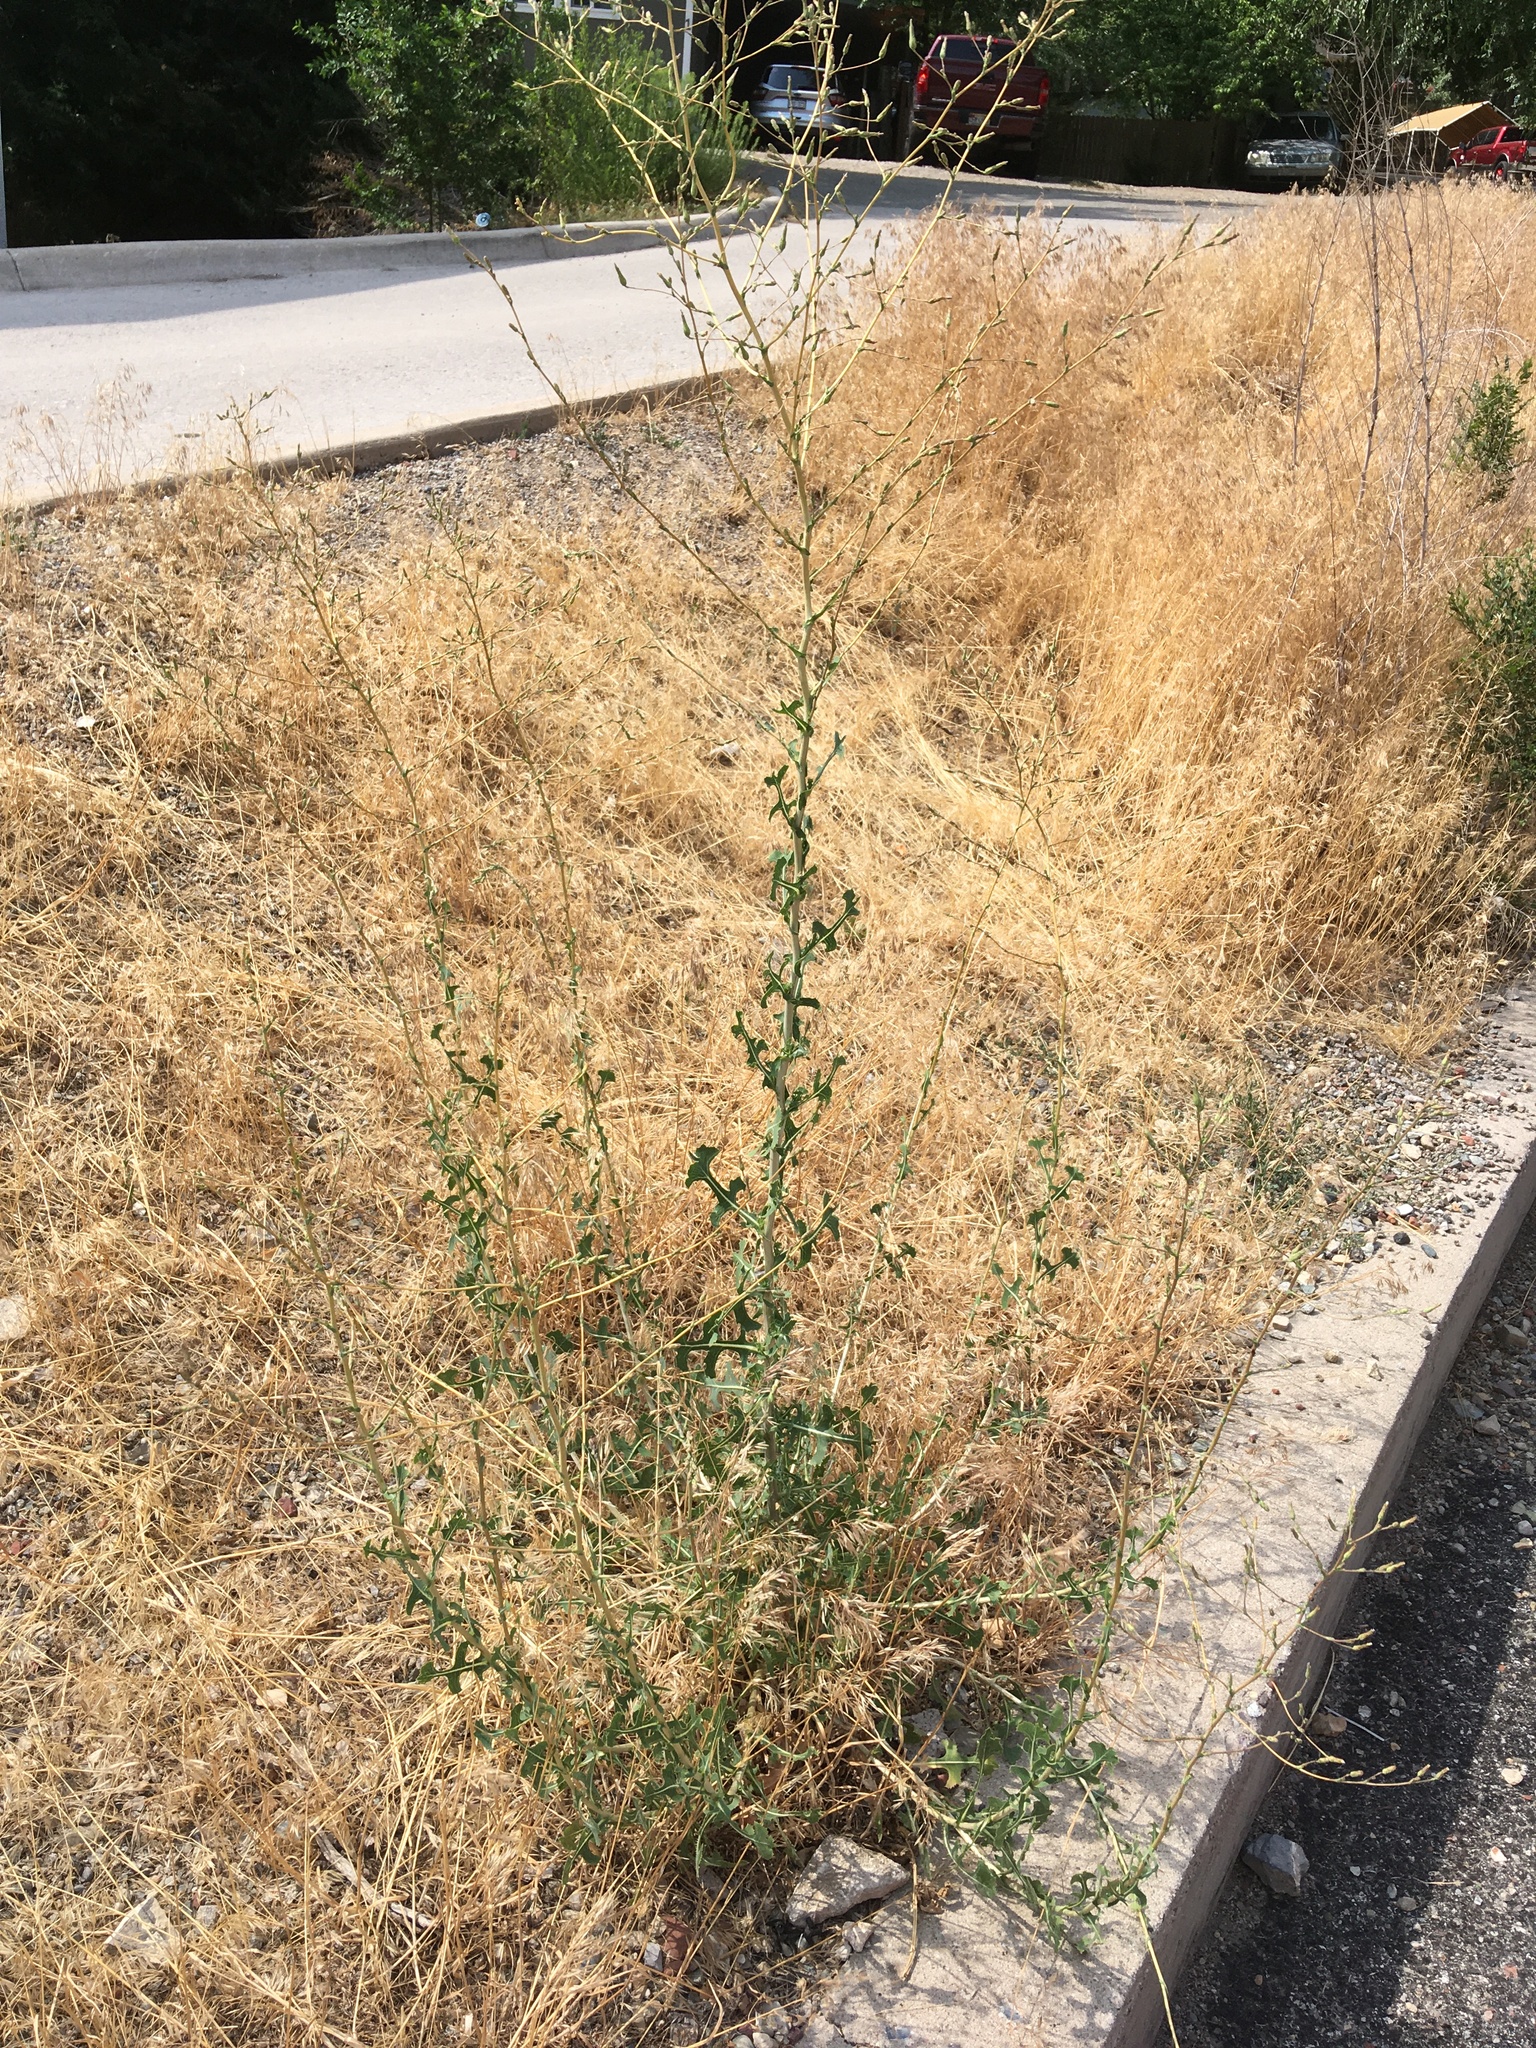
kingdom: Plantae
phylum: Tracheophyta
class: Magnoliopsida
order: Asterales
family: Asteraceae
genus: Lactuca
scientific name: Lactuca serriola
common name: Prickly lettuce
